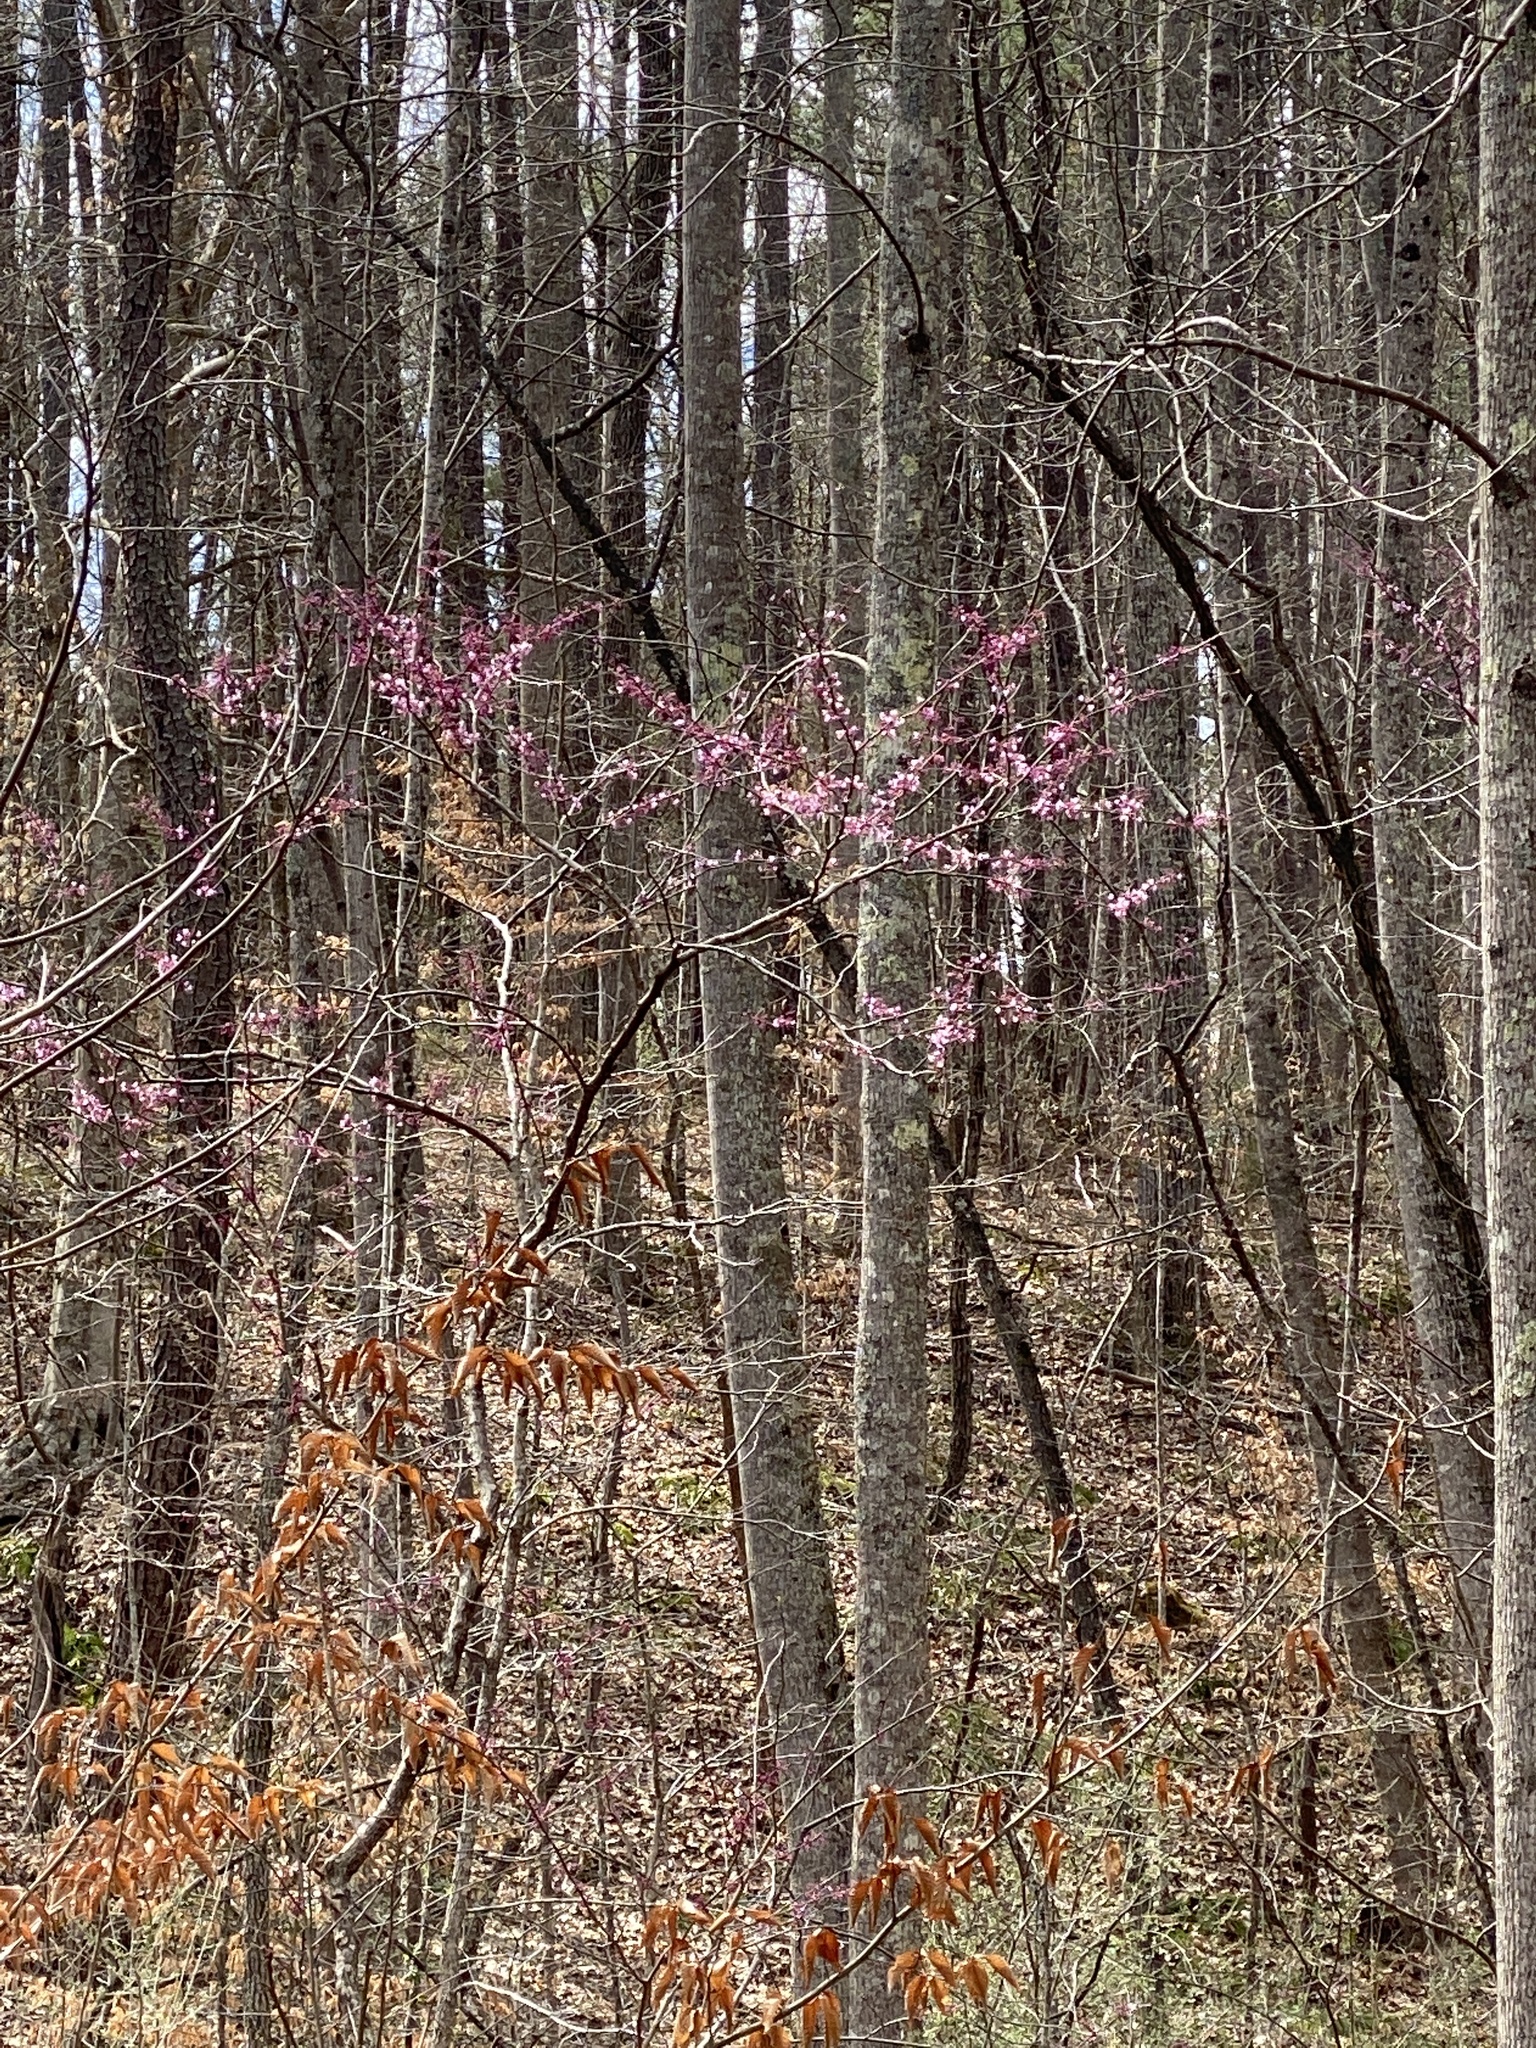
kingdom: Plantae
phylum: Tracheophyta
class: Magnoliopsida
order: Fabales
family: Fabaceae
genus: Cercis
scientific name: Cercis canadensis
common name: Eastern redbud
